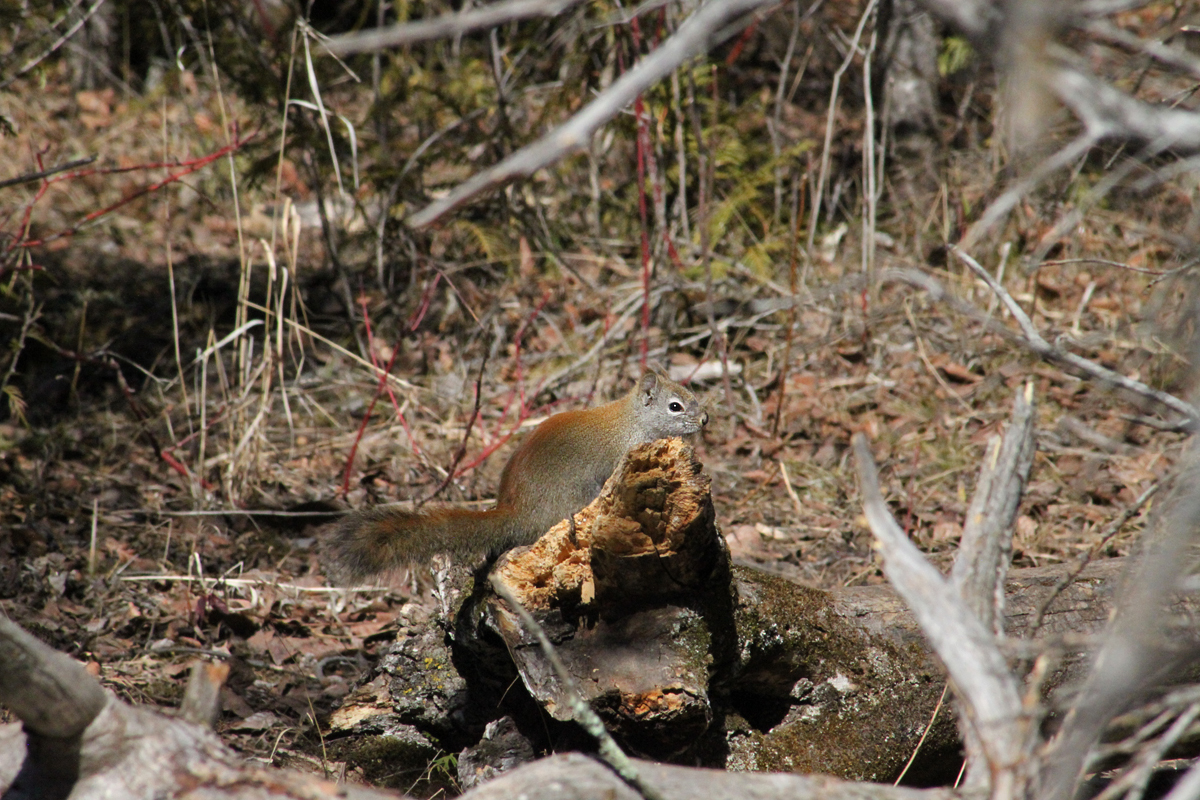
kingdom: Animalia
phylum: Chordata
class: Mammalia
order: Rodentia
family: Sciuridae
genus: Tamiasciurus
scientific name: Tamiasciurus hudsonicus
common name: Red squirrel
